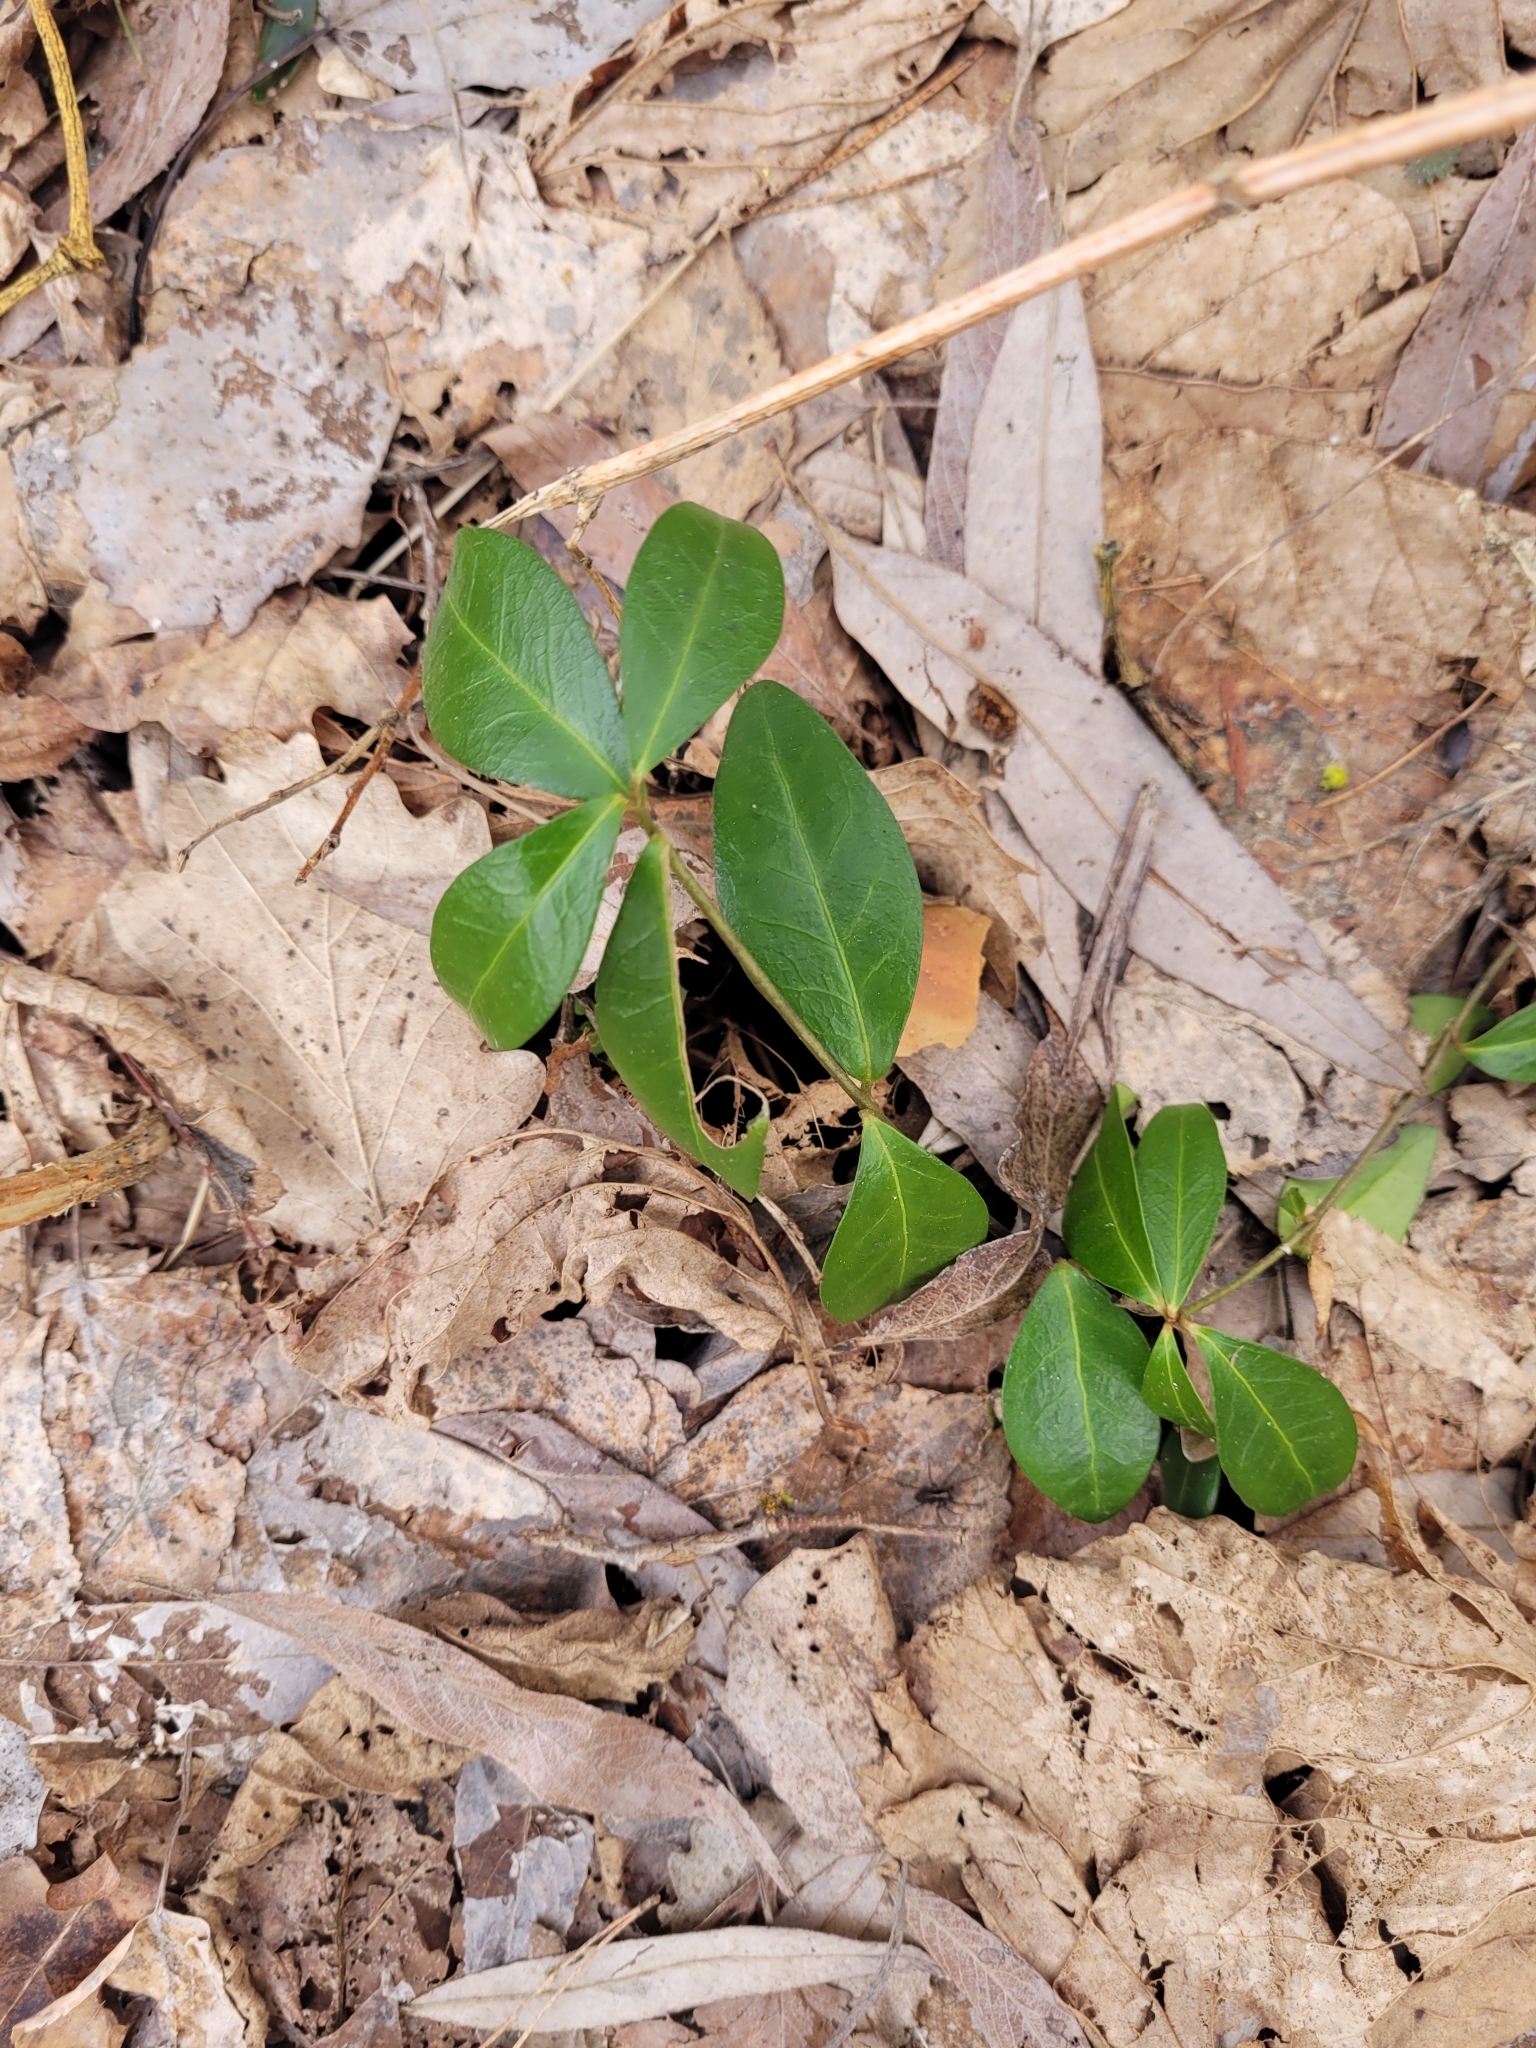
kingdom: Plantae
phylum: Tracheophyta
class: Magnoliopsida
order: Gentianales
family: Apocynaceae
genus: Vinca
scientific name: Vinca minor
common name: Lesser periwinkle
